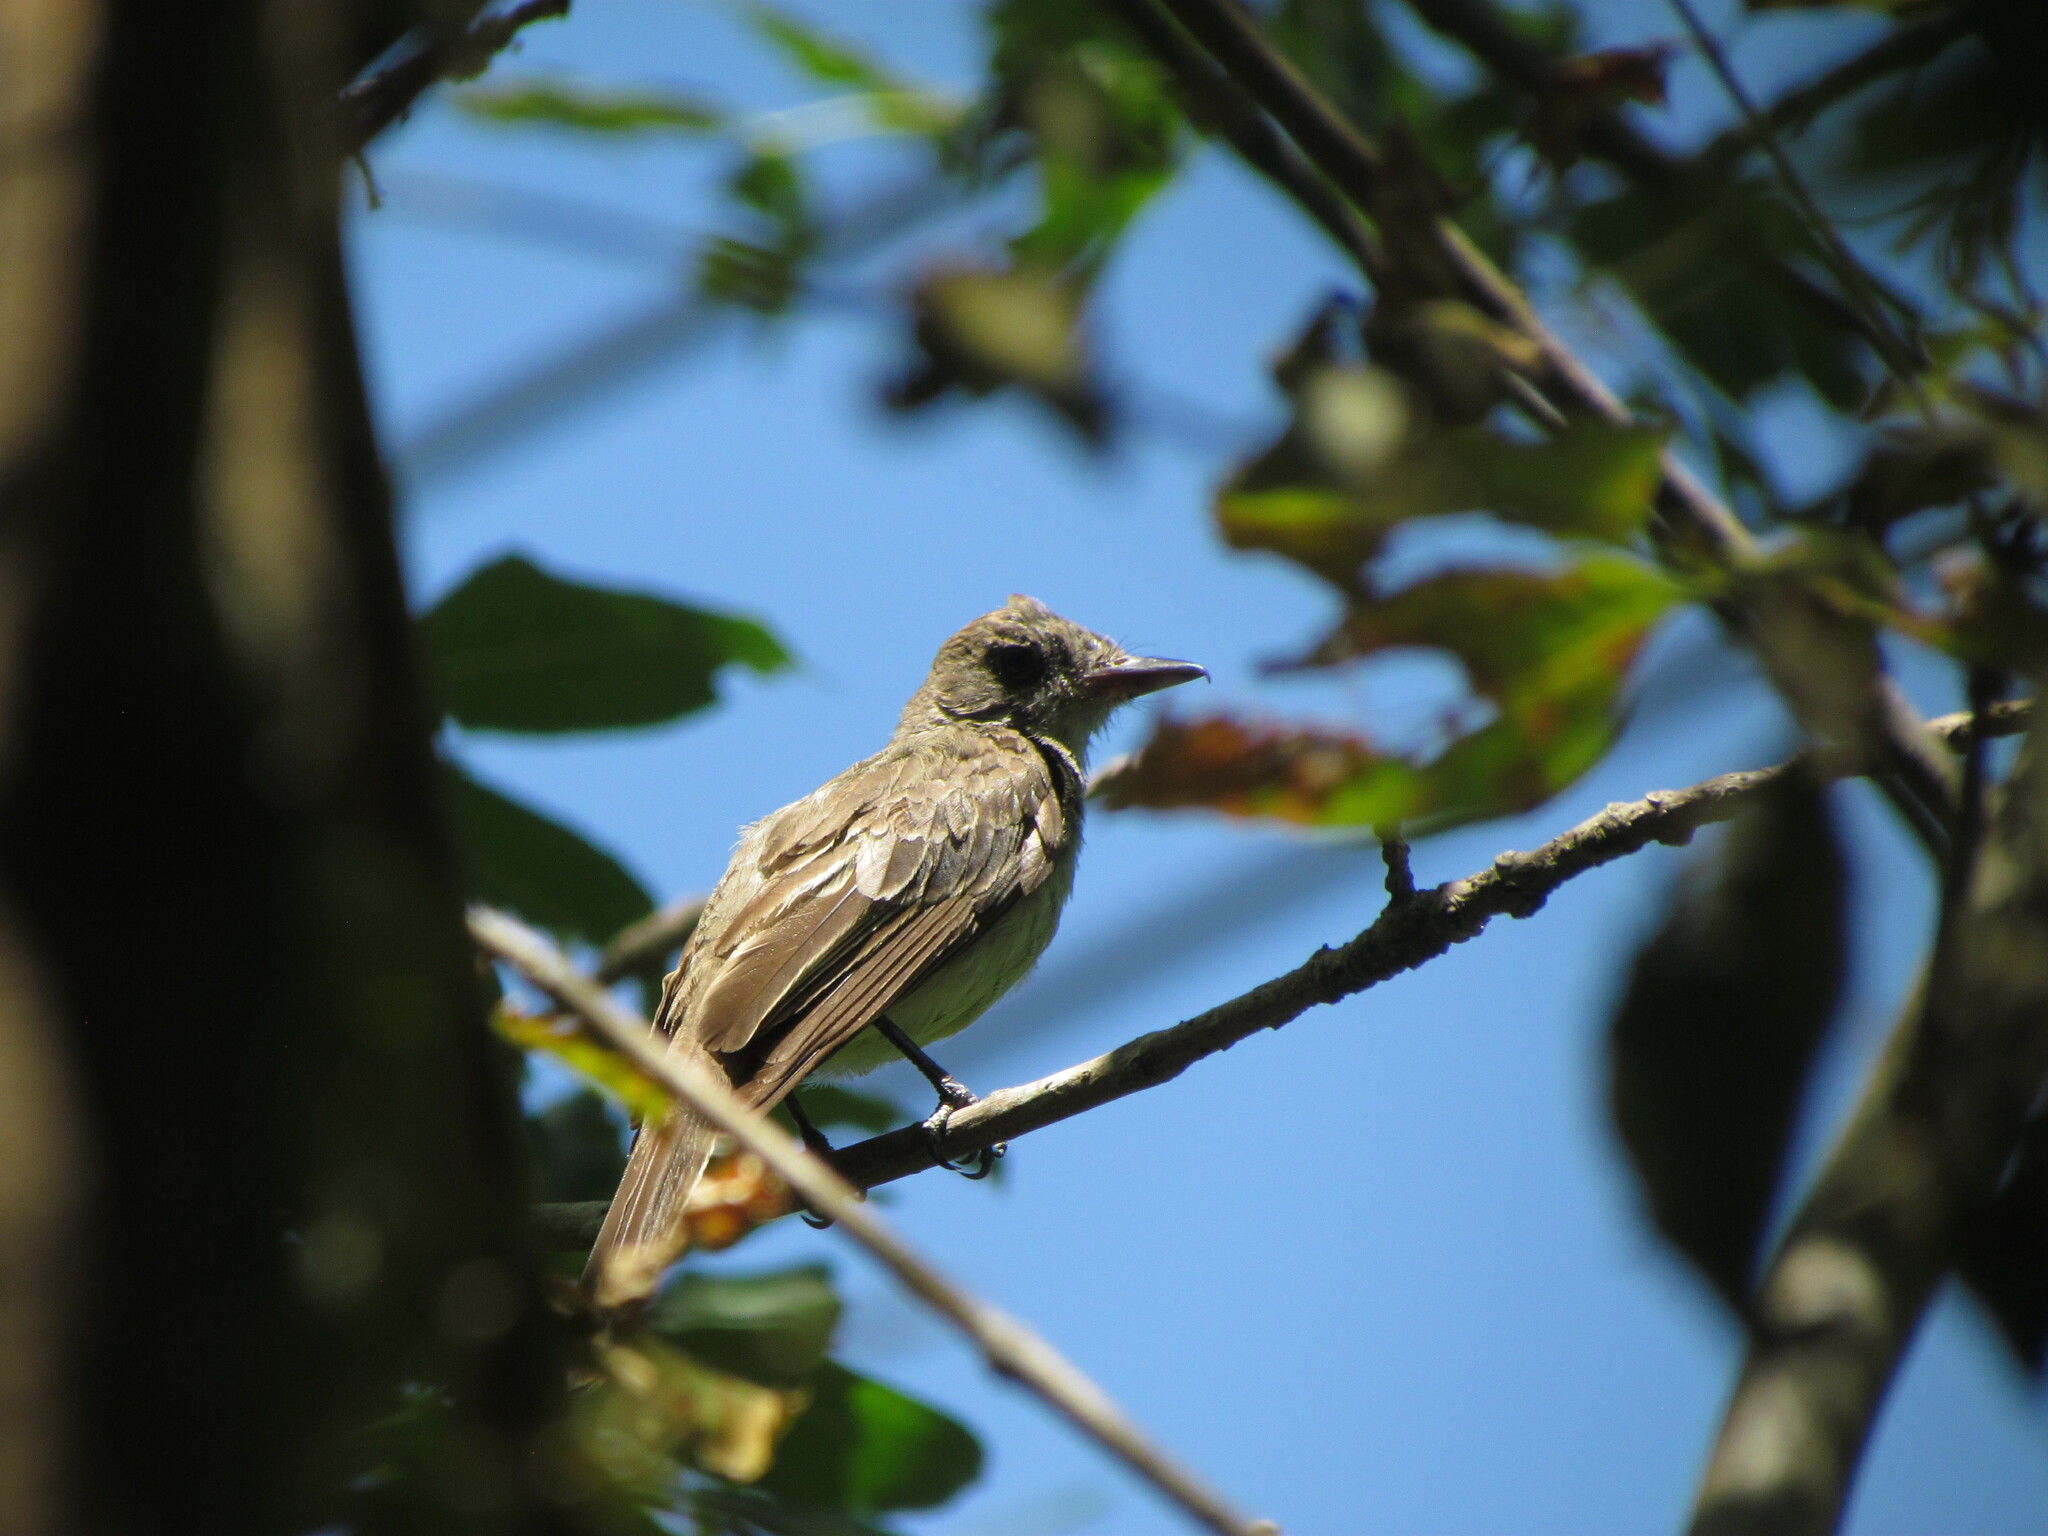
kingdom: Animalia
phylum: Chordata
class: Aves
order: Passeriformes
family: Tyrannidae
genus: Myiarchus
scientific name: Myiarchus swainsoni
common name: Swainson's flycatcher
